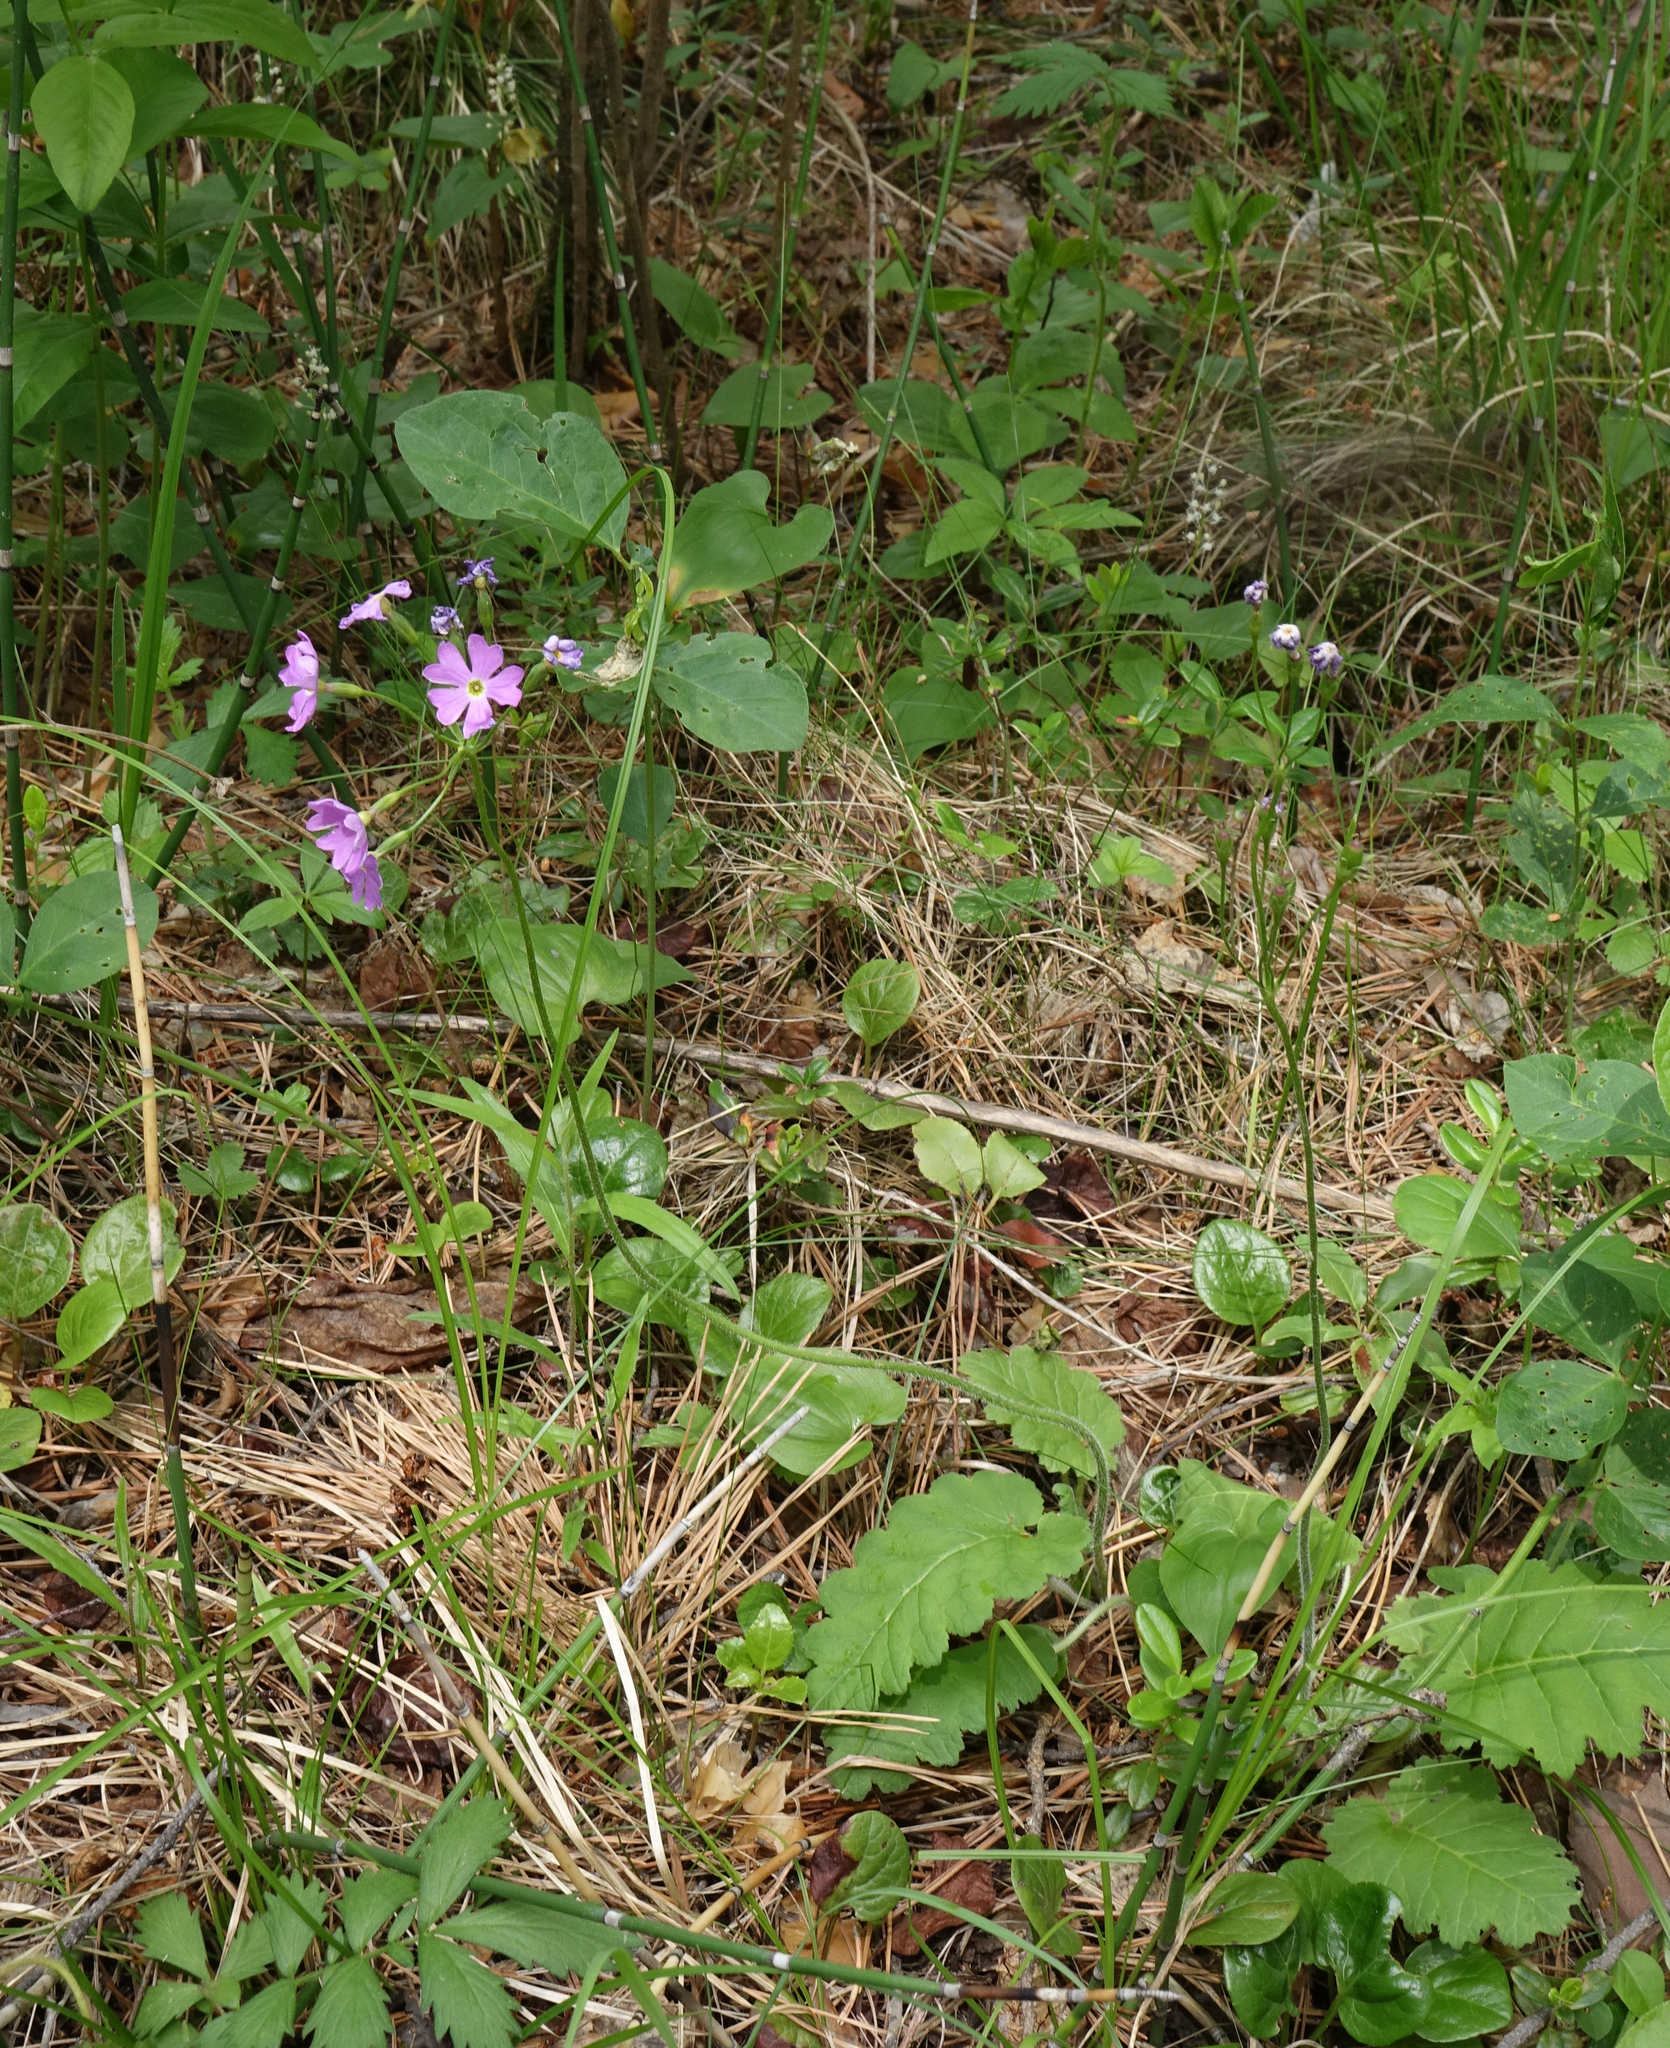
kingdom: Plantae
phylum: Tracheophyta
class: Magnoliopsida
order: Ericales
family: Primulaceae
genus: Primula
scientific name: Primula cortusoides
